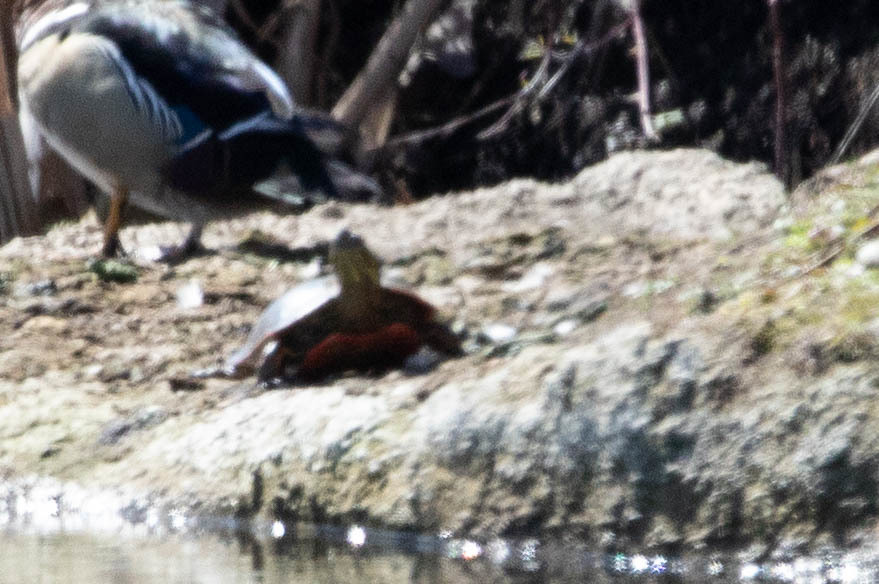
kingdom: Animalia
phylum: Chordata
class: Testudines
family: Emydidae
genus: Chrysemys
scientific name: Chrysemys picta
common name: Painted turtle
